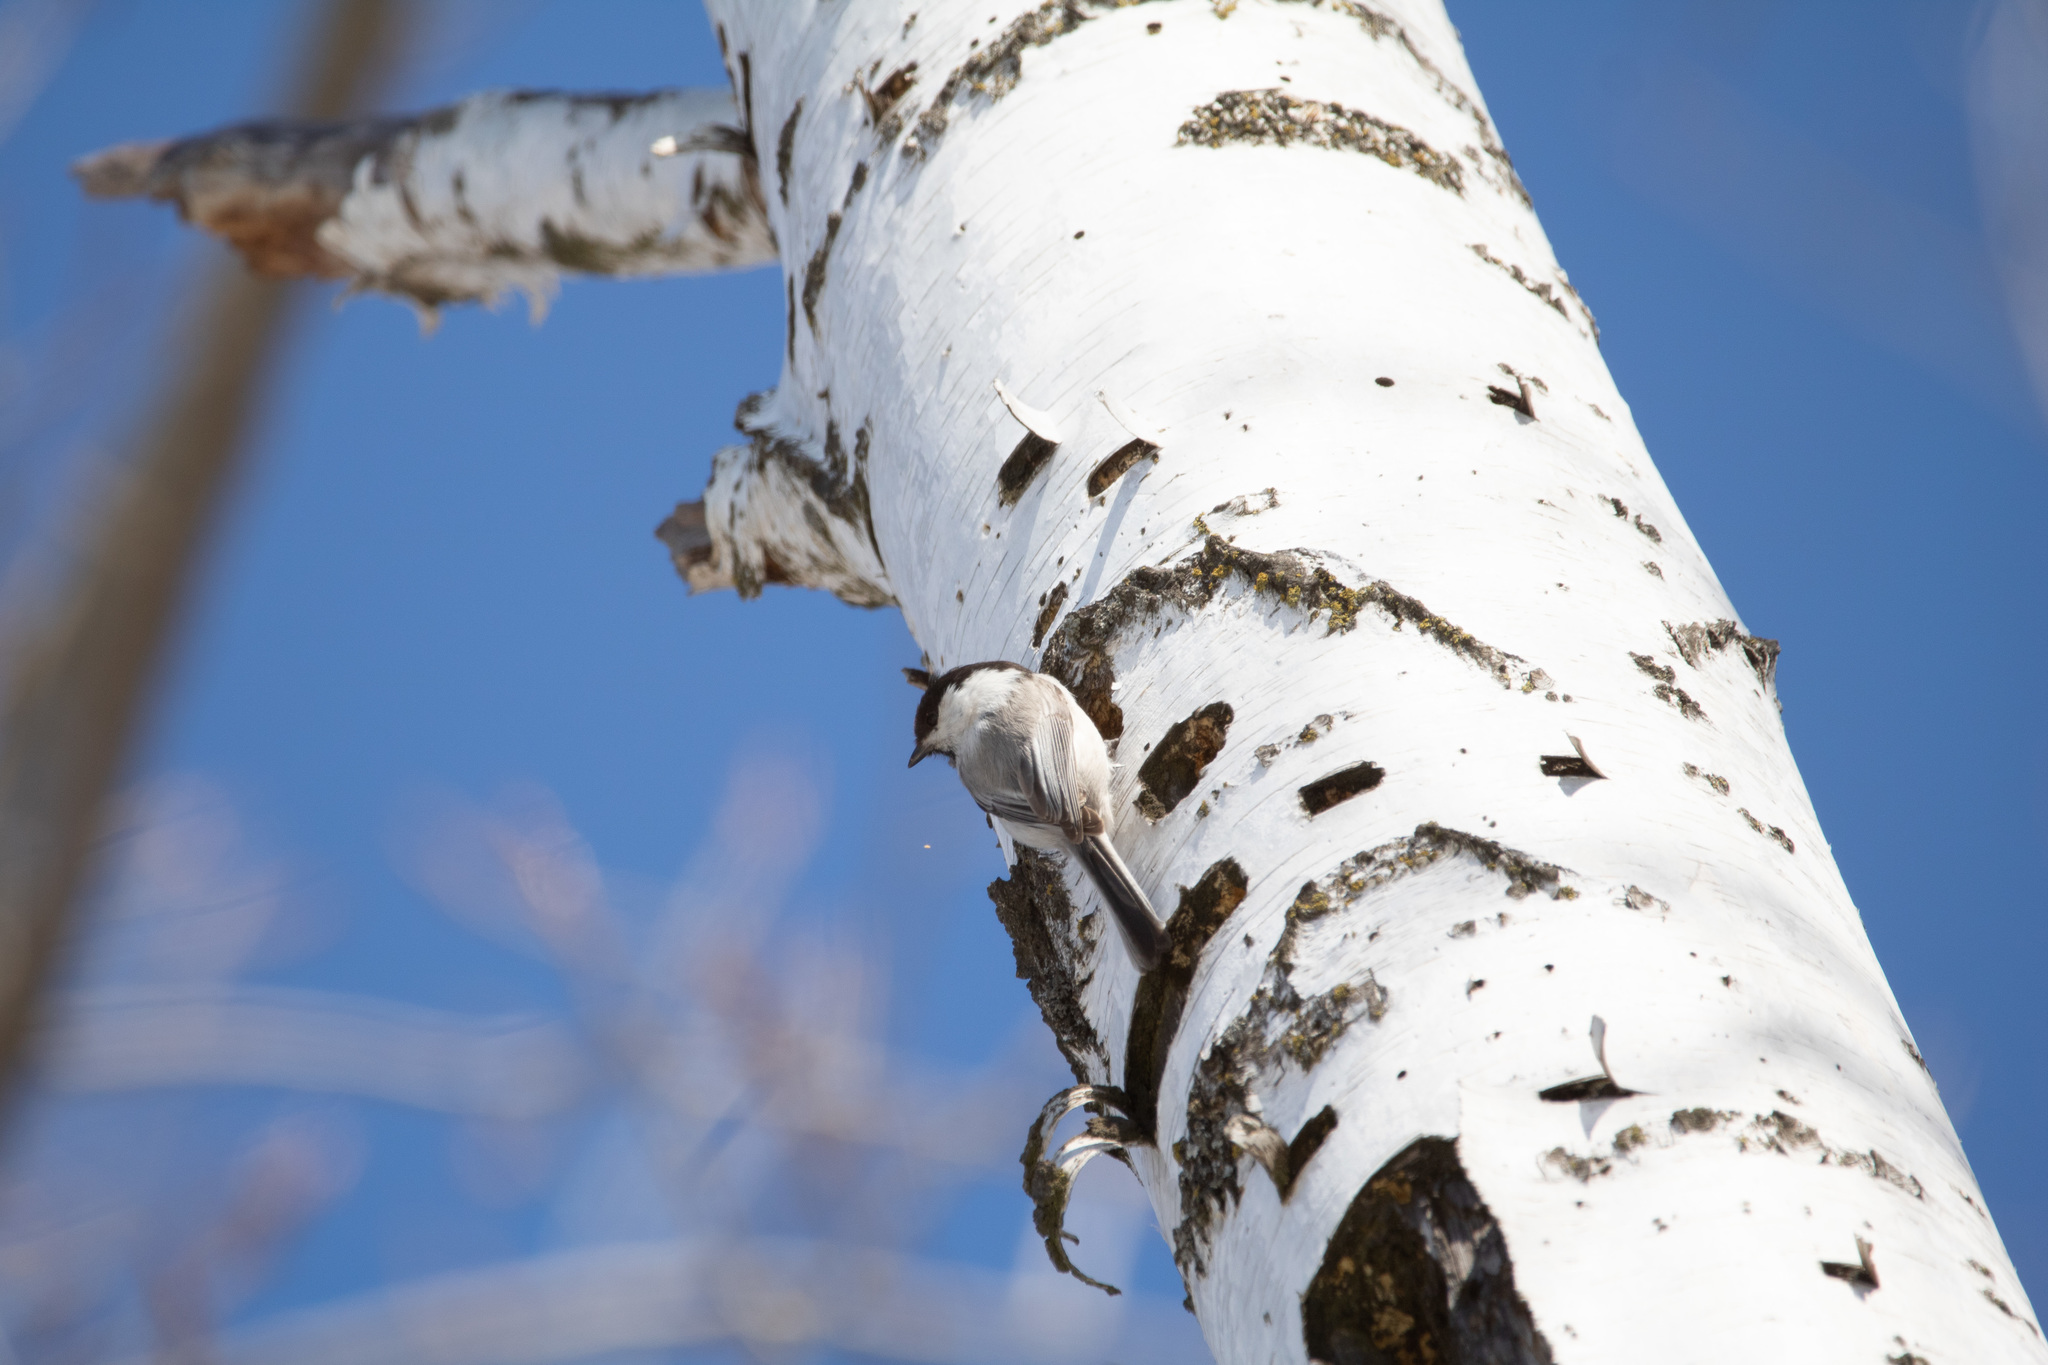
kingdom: Animalia
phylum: Chordata
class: Aves
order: Passeriformes
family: Paridae
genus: Poecile
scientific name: Poecile montanus
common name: Willow tit
